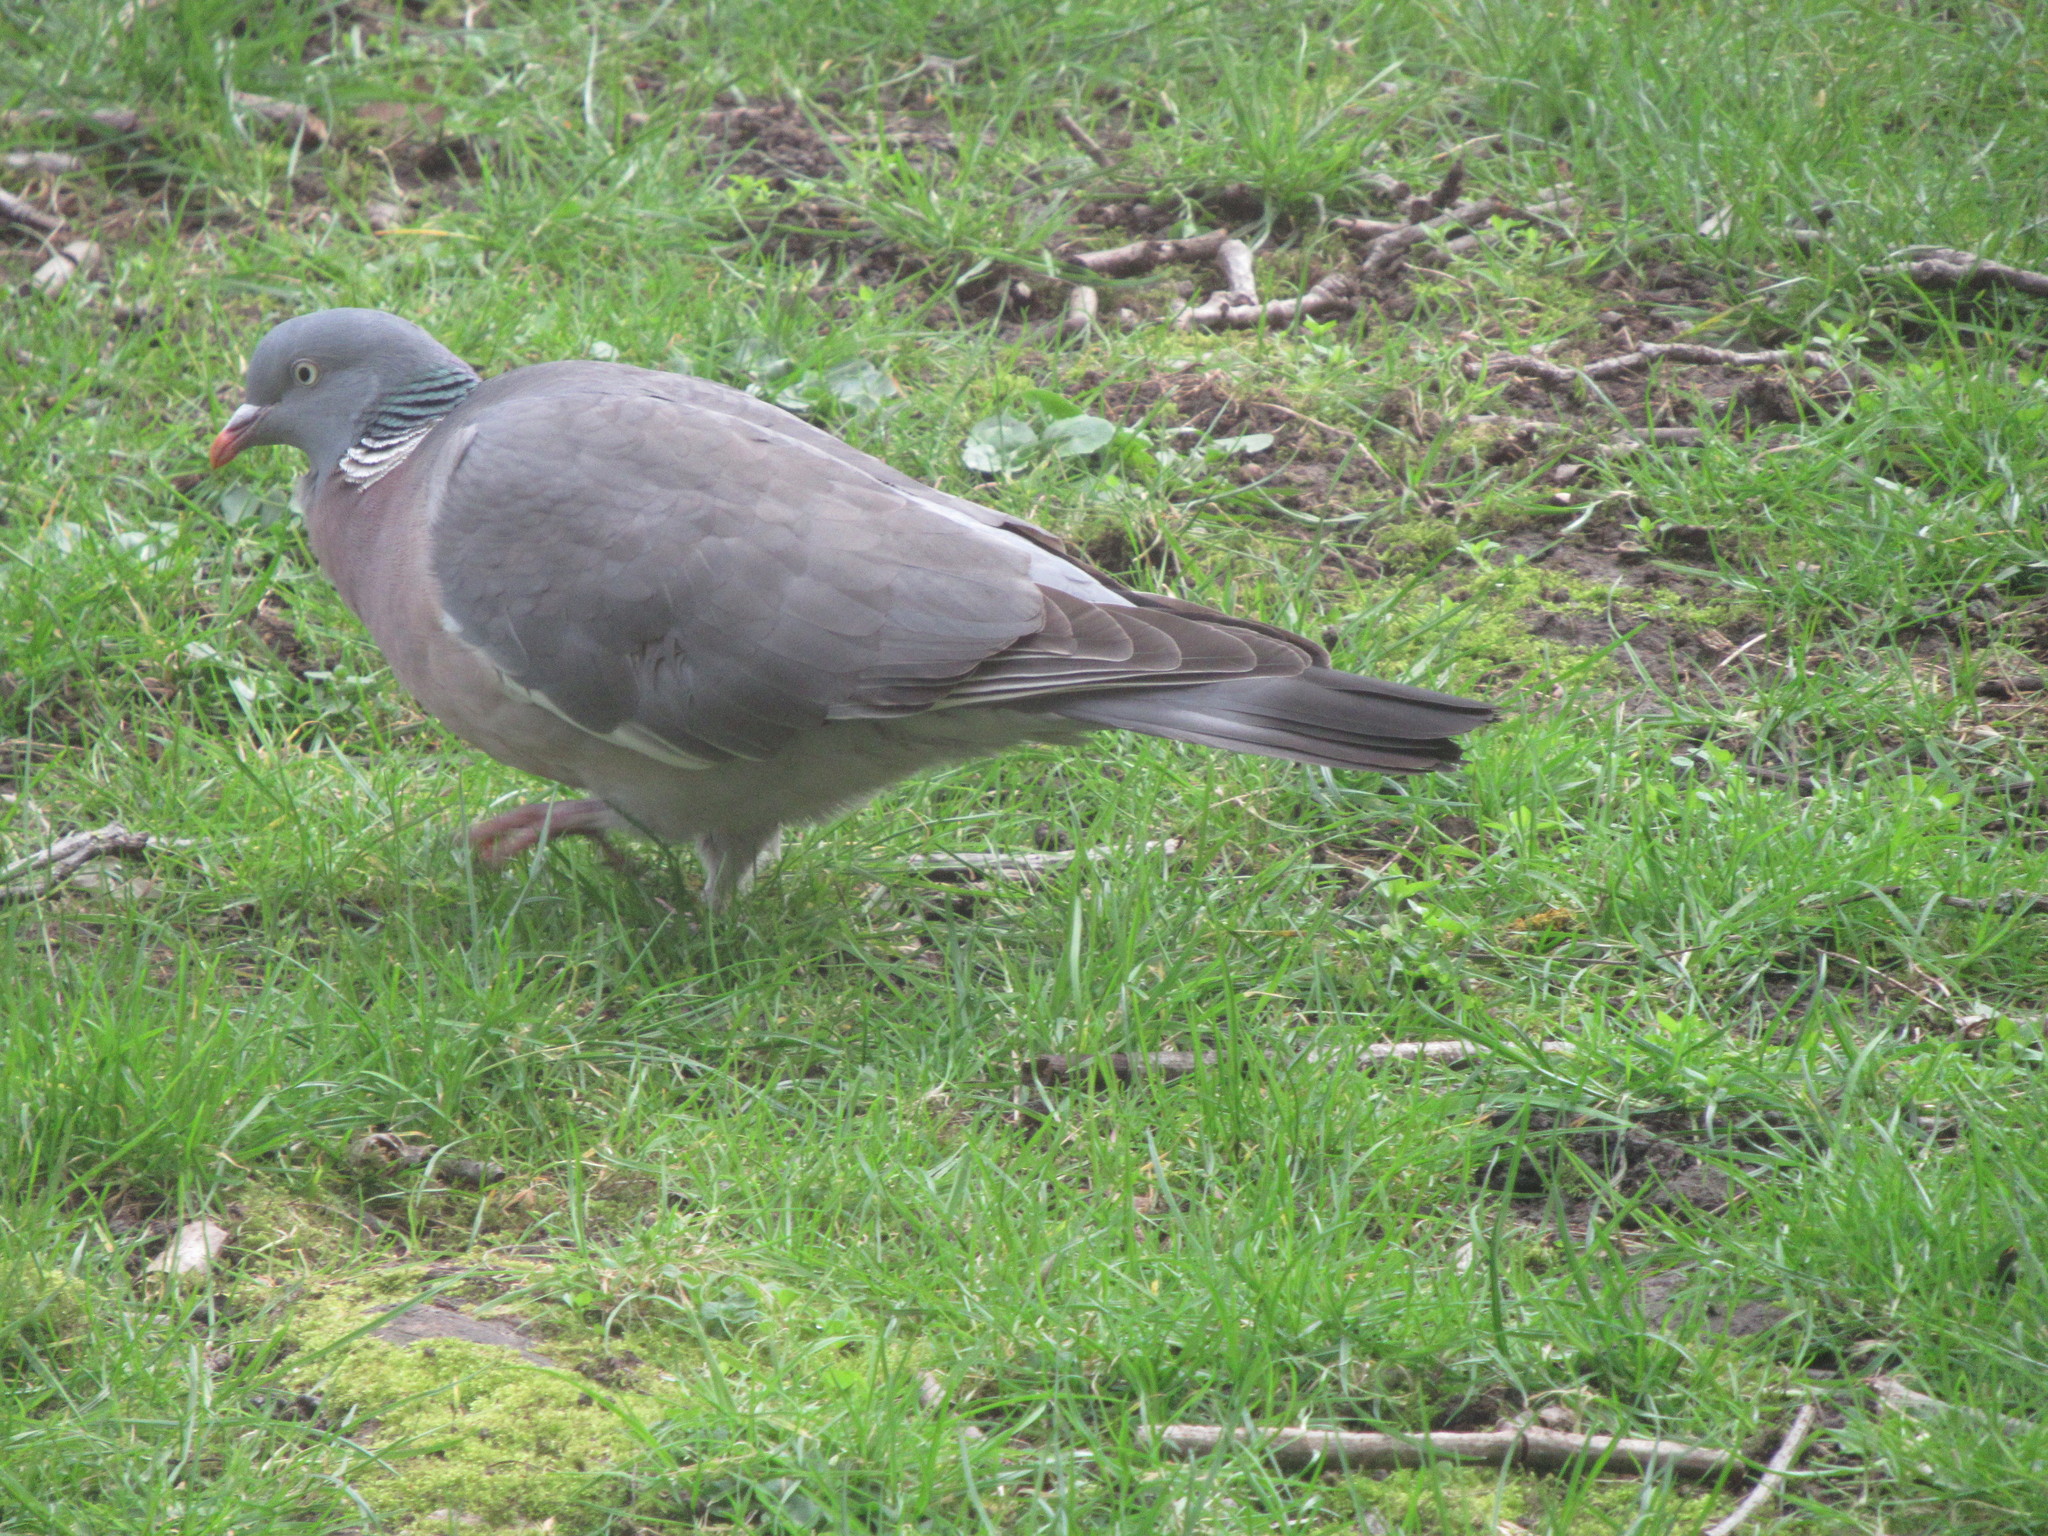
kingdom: Animalia
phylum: Chordata
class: Aves
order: Columbiformes
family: Columbidae
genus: Columba
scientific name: Columba palumbus
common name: Common wood pigeon
